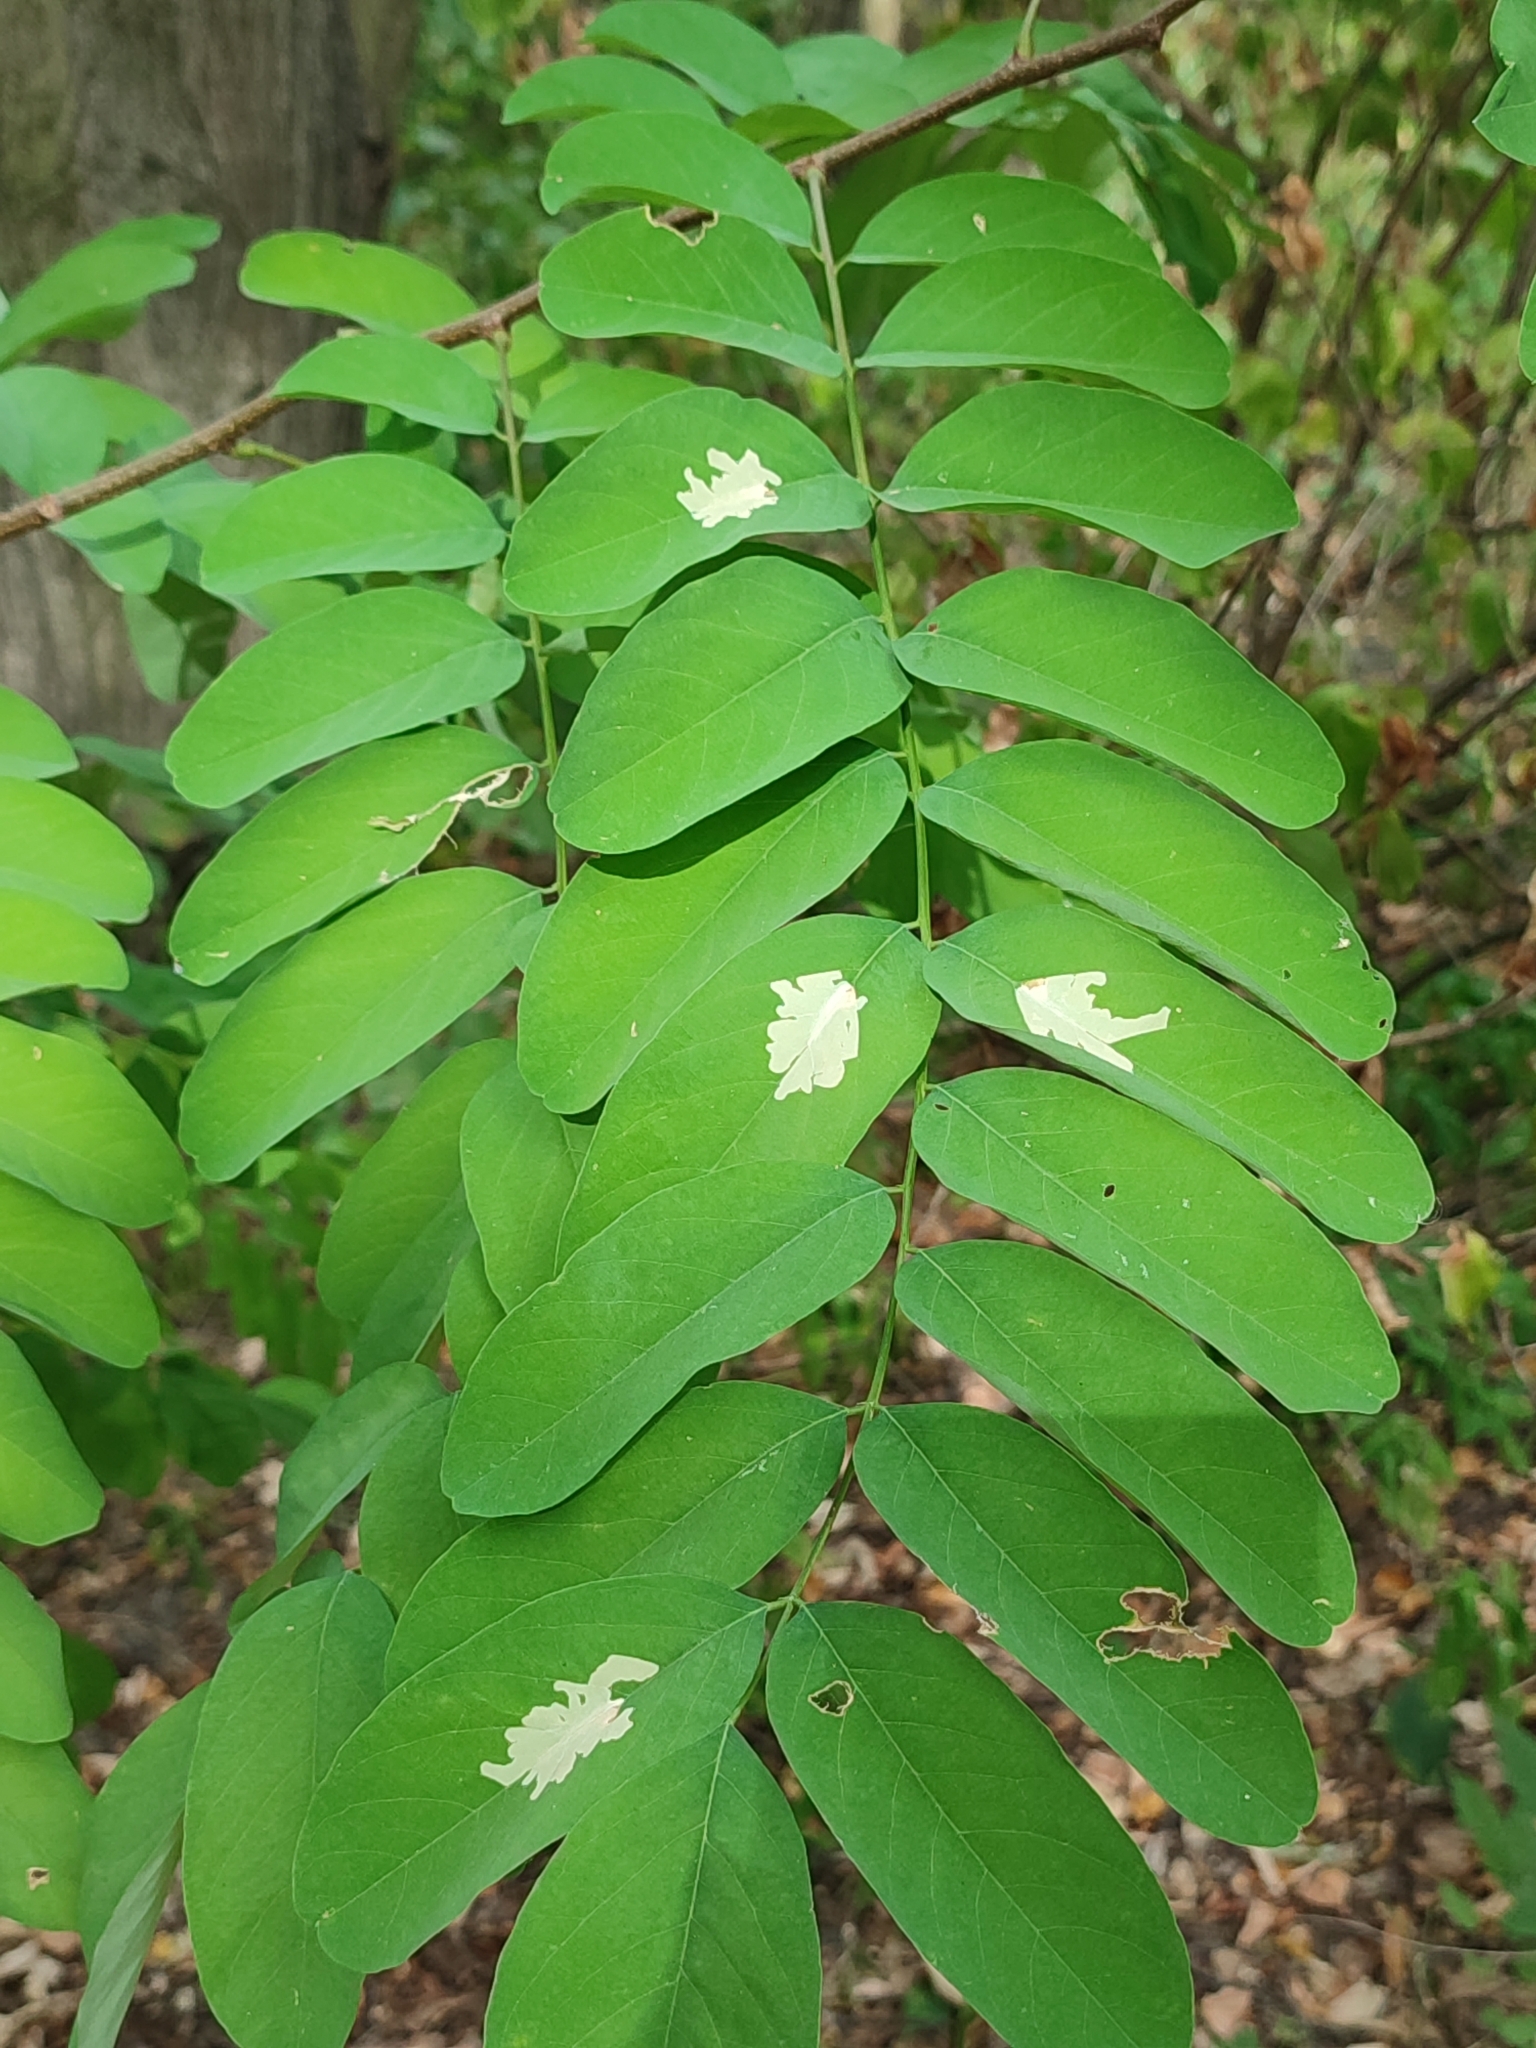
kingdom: Animalia
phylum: Arthropoda
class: Insecta
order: Lepidoptera
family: Gracillariidae
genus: Parectopa
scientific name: Parectopa robiniella
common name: Locust digitate leafminer
